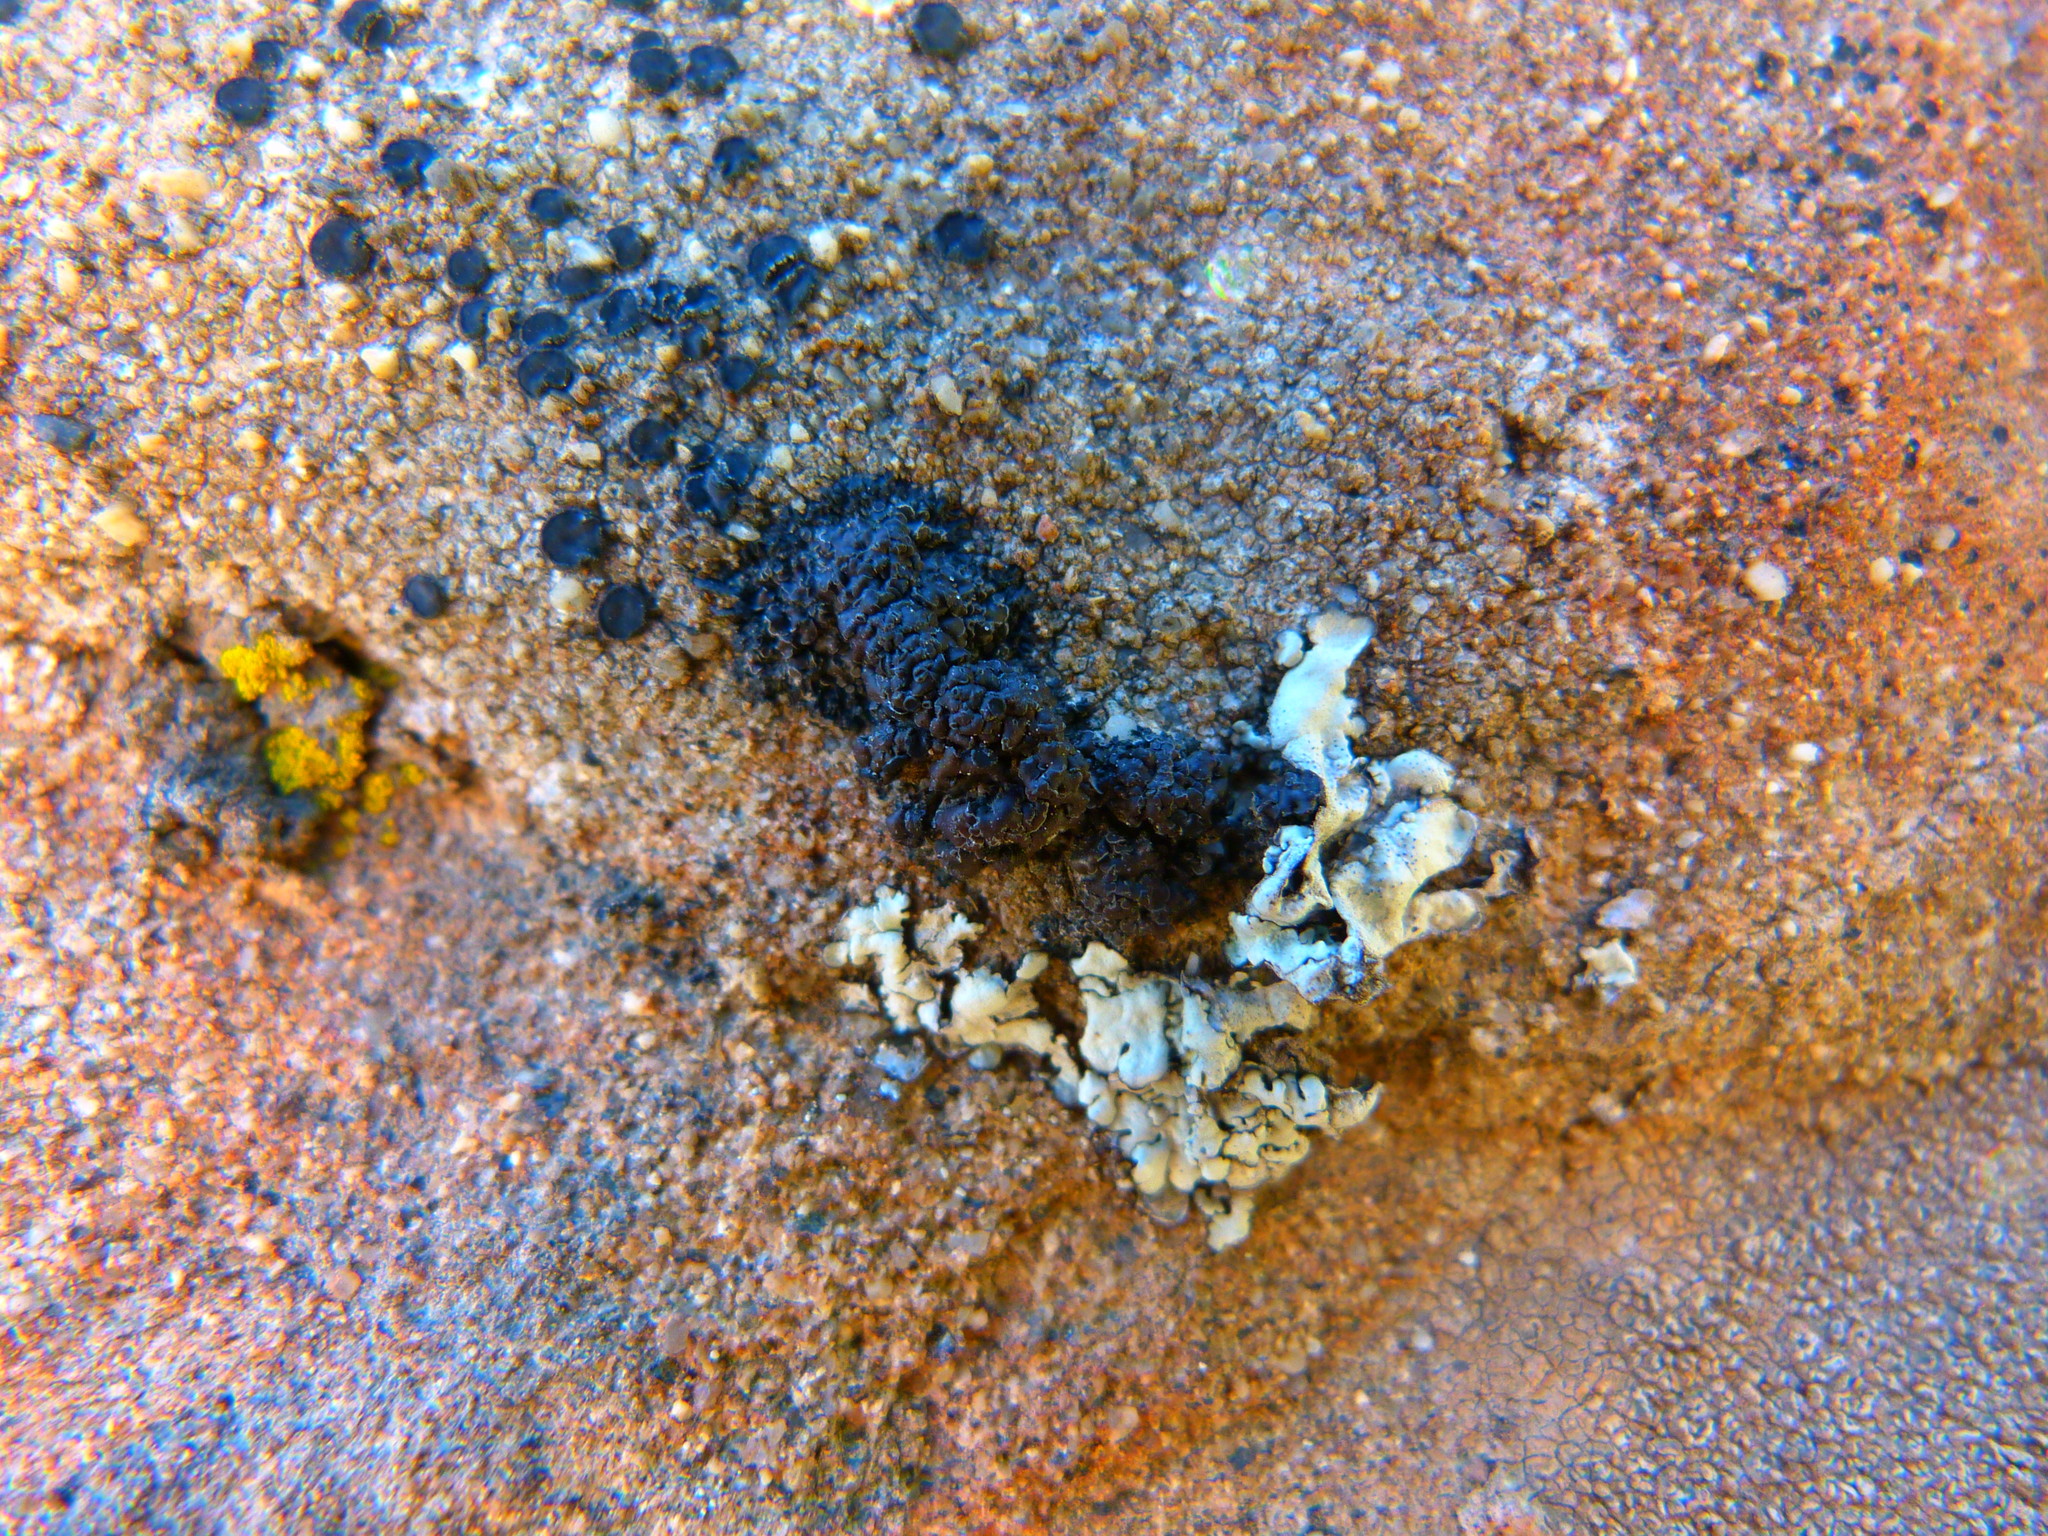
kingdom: Fungi
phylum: Ascomycota
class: Lecanoromycetes
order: Lecanorales
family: Lecanoraceae
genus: Miriquidica
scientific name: Miriquidica scotopholis
